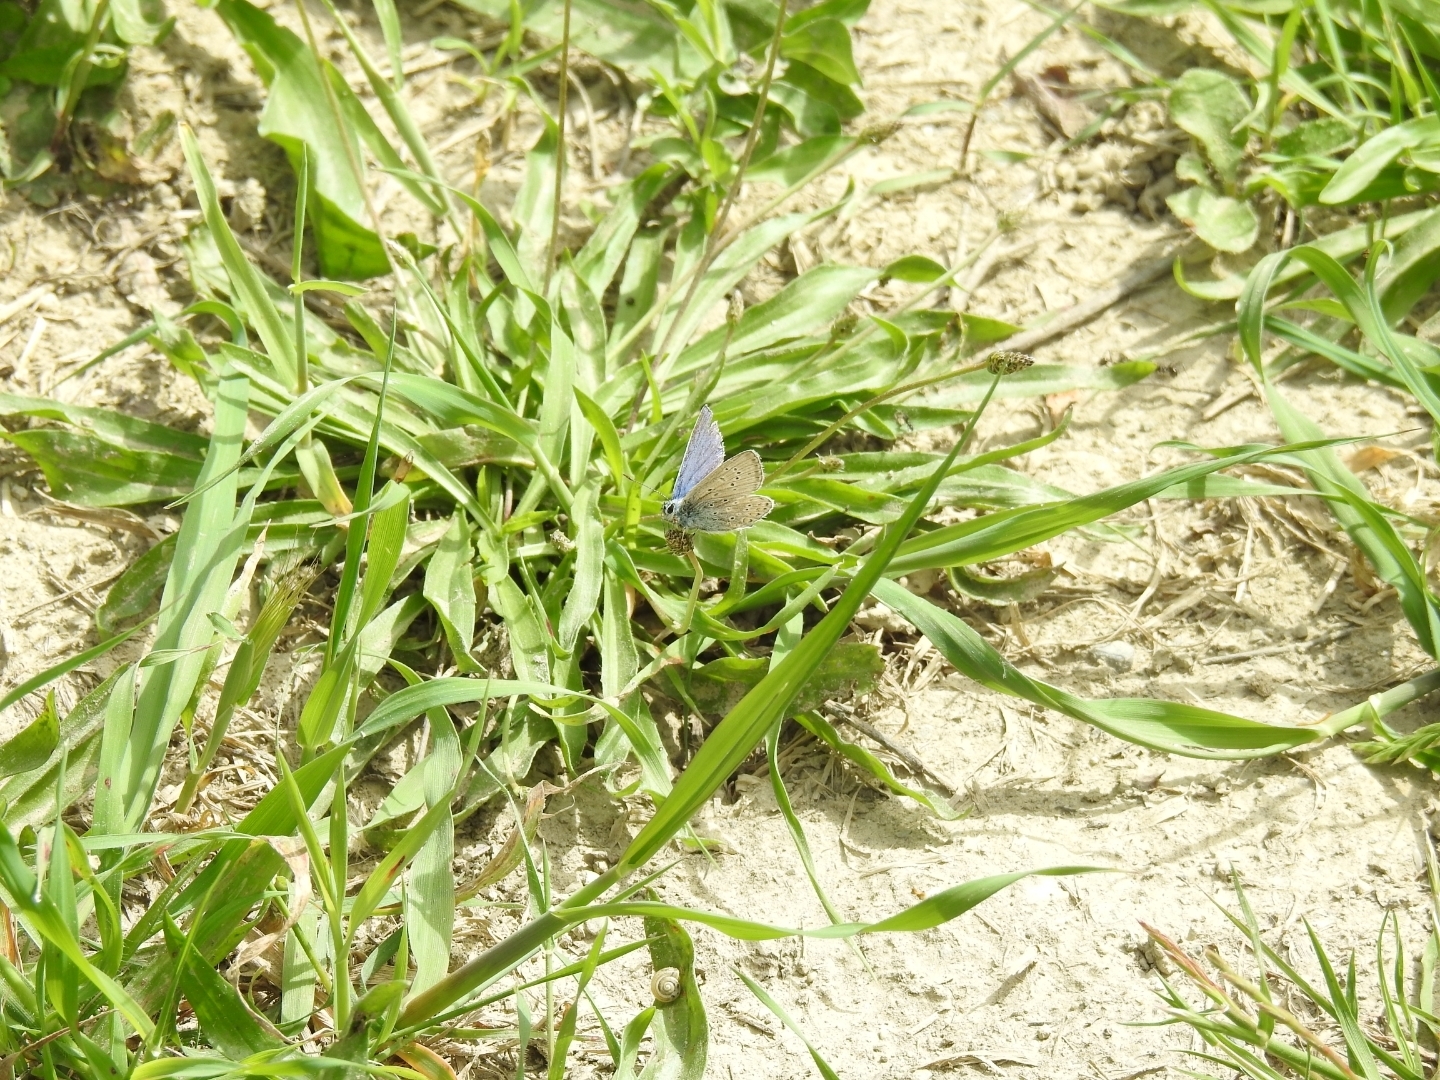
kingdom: Animalia
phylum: Arthropoda
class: Insecta
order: Lepidoptera
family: Lycaenidae
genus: Polyommatus
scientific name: Polyommatus icarus
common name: Common blue
